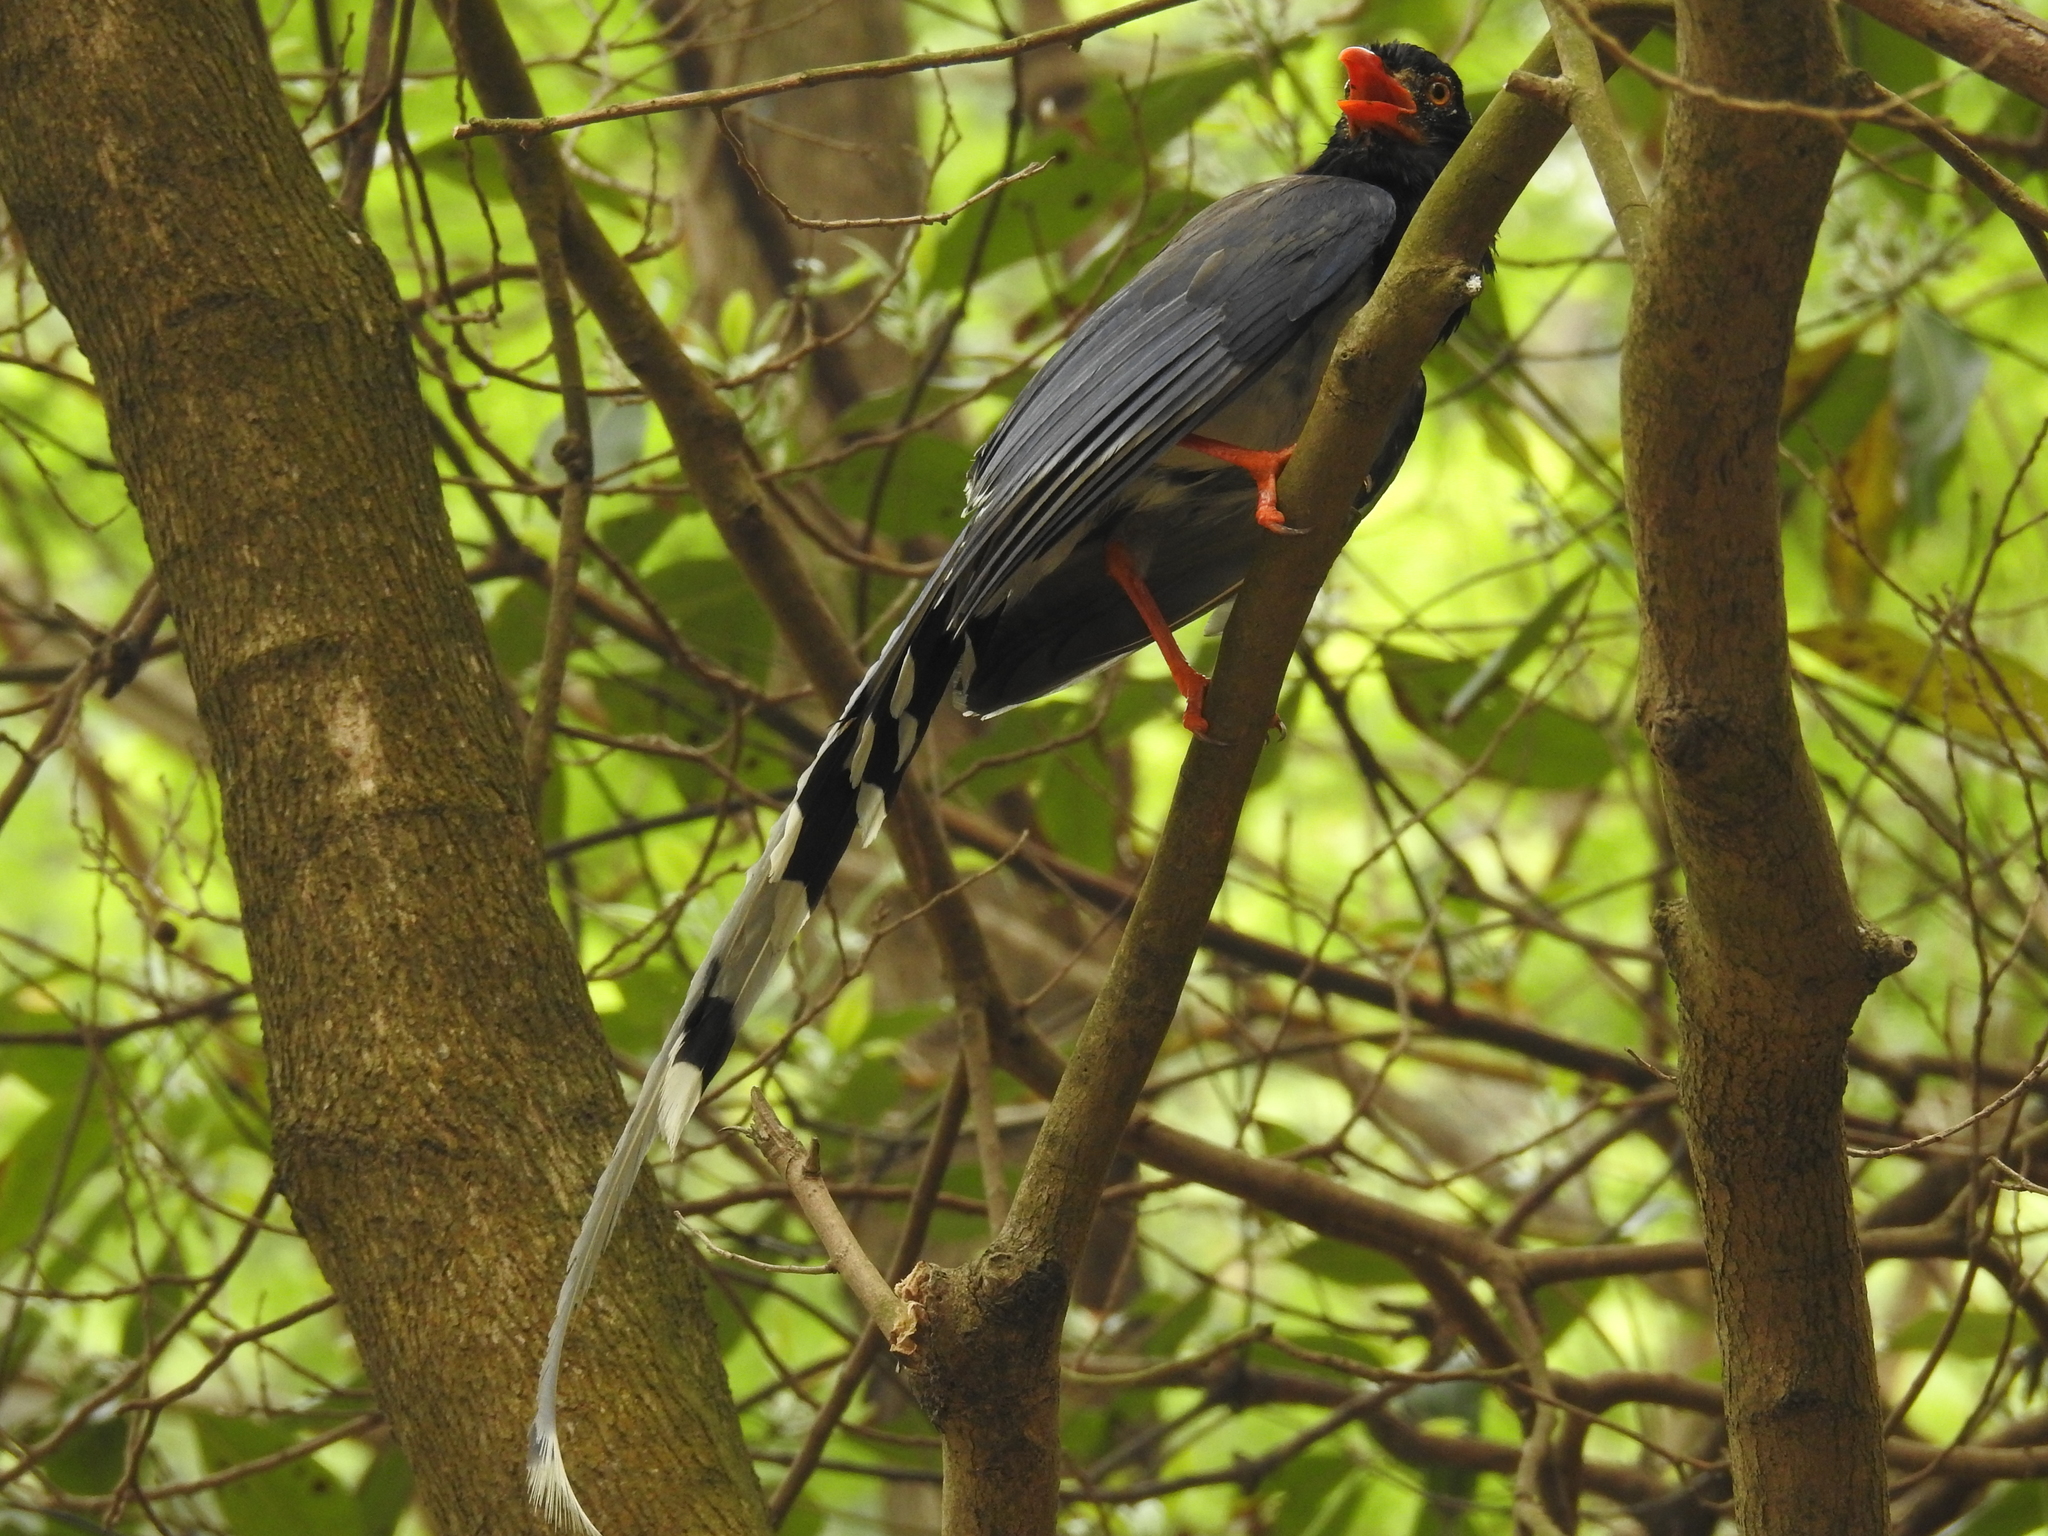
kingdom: Animalia
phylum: Chordata
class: Aves
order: Passeriformes
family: Corvidae
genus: Urocissa
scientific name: Urocissa erythroryncha
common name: Red-billed blue magpie
